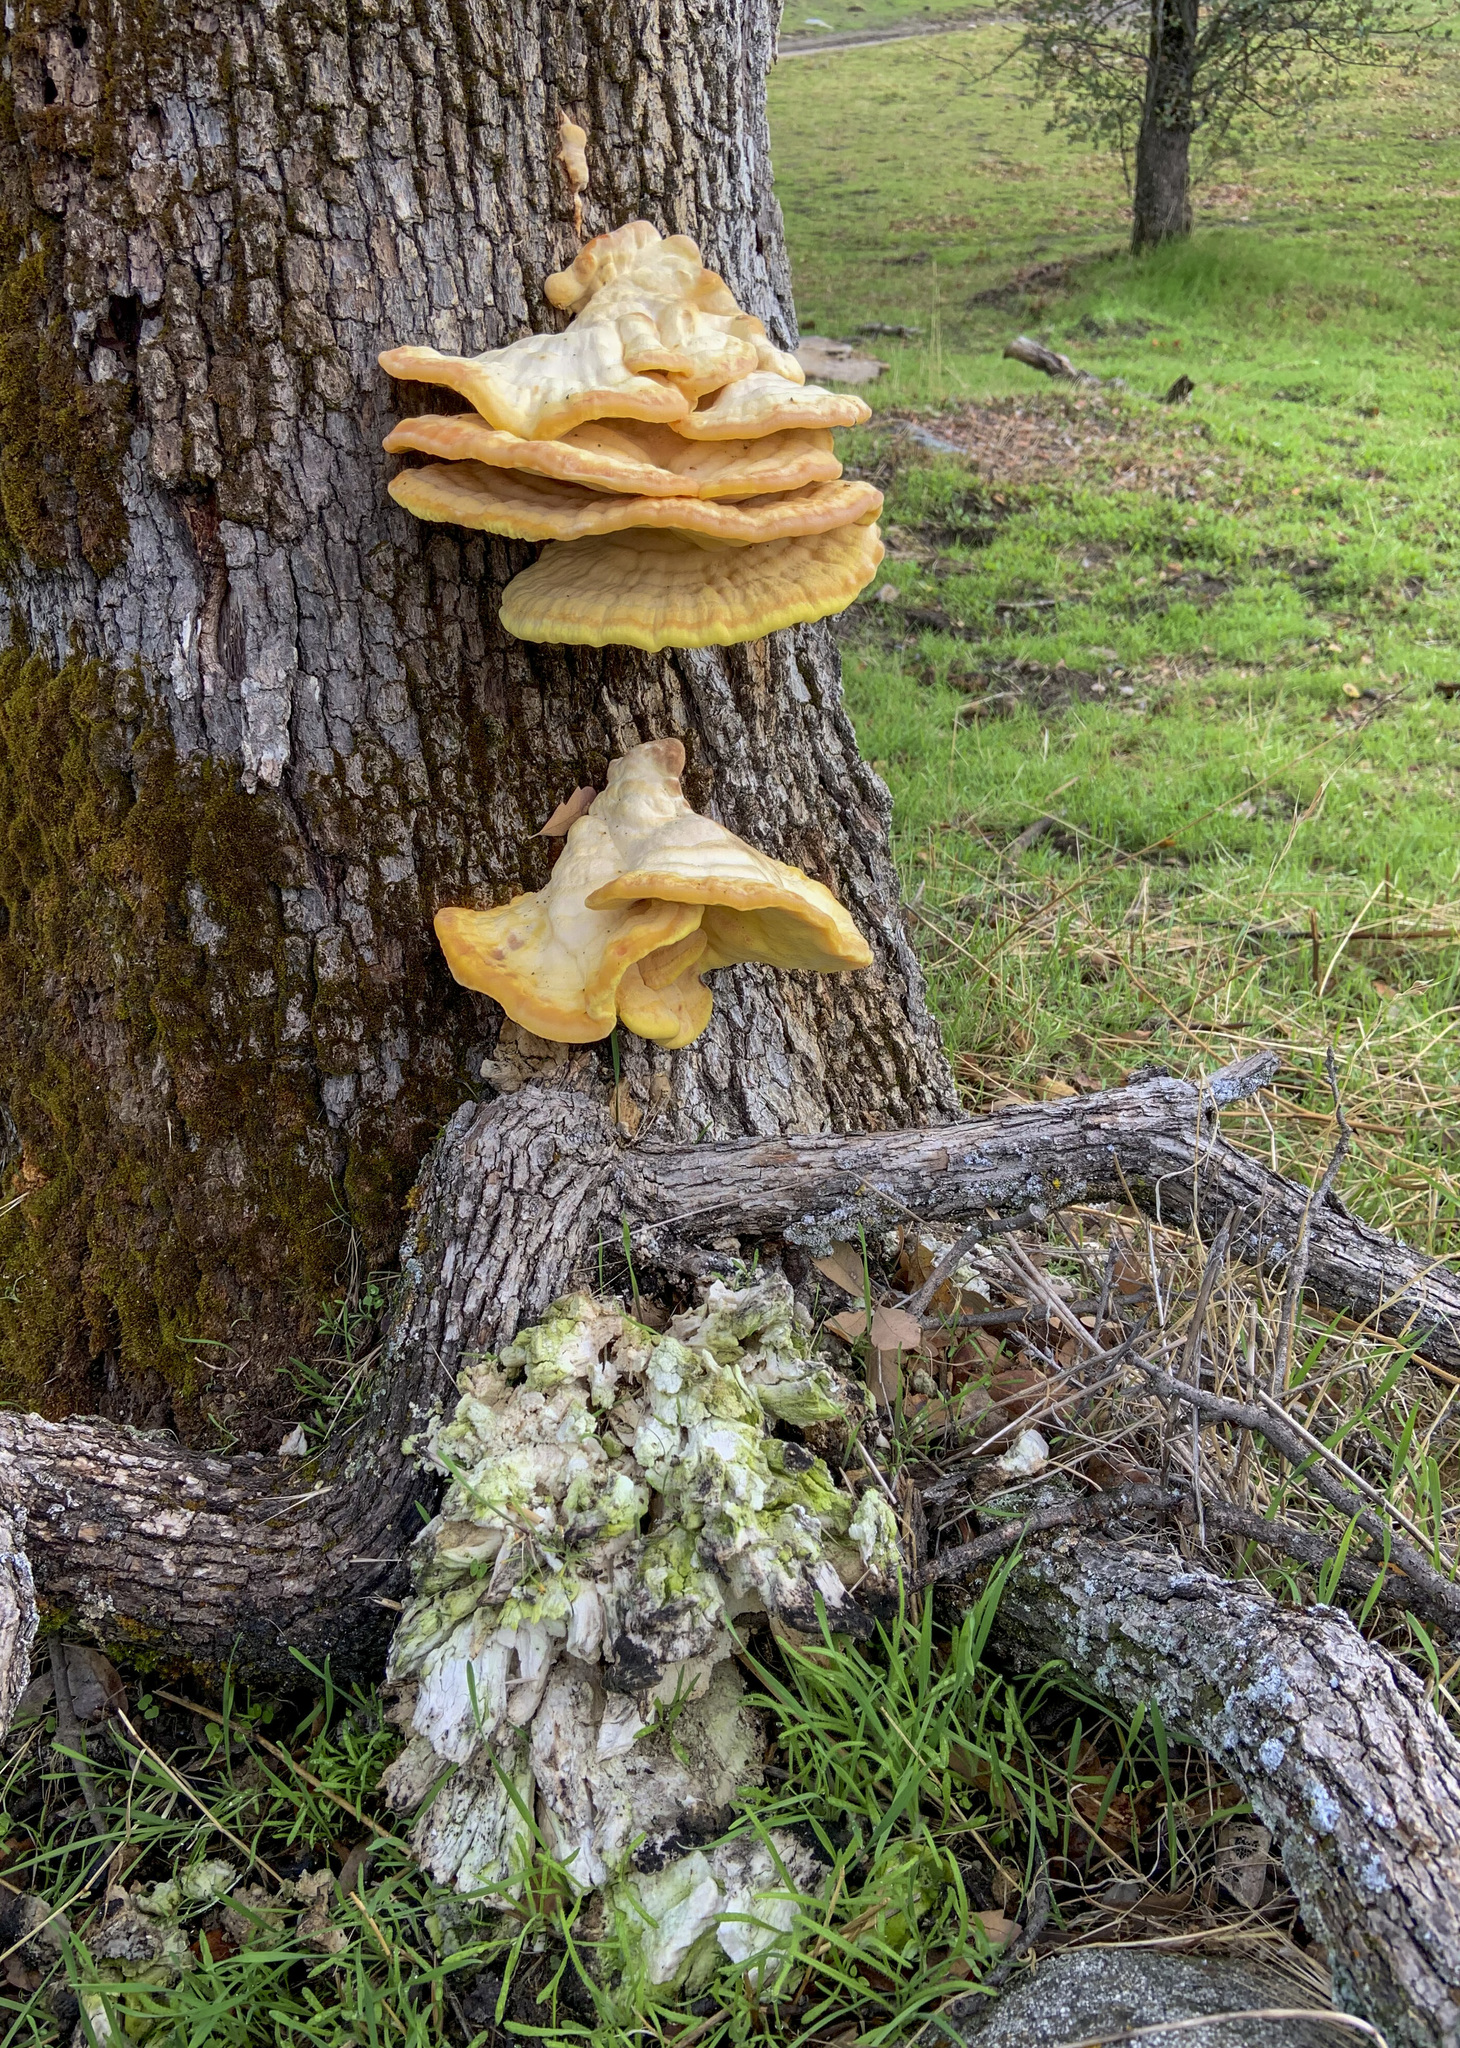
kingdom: Fungi
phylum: Basidiomycota
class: Agaricomycetes
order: Polyporales
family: Laetiporaceae
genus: Laetiporus
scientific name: Laetiporus gilbertsonii
